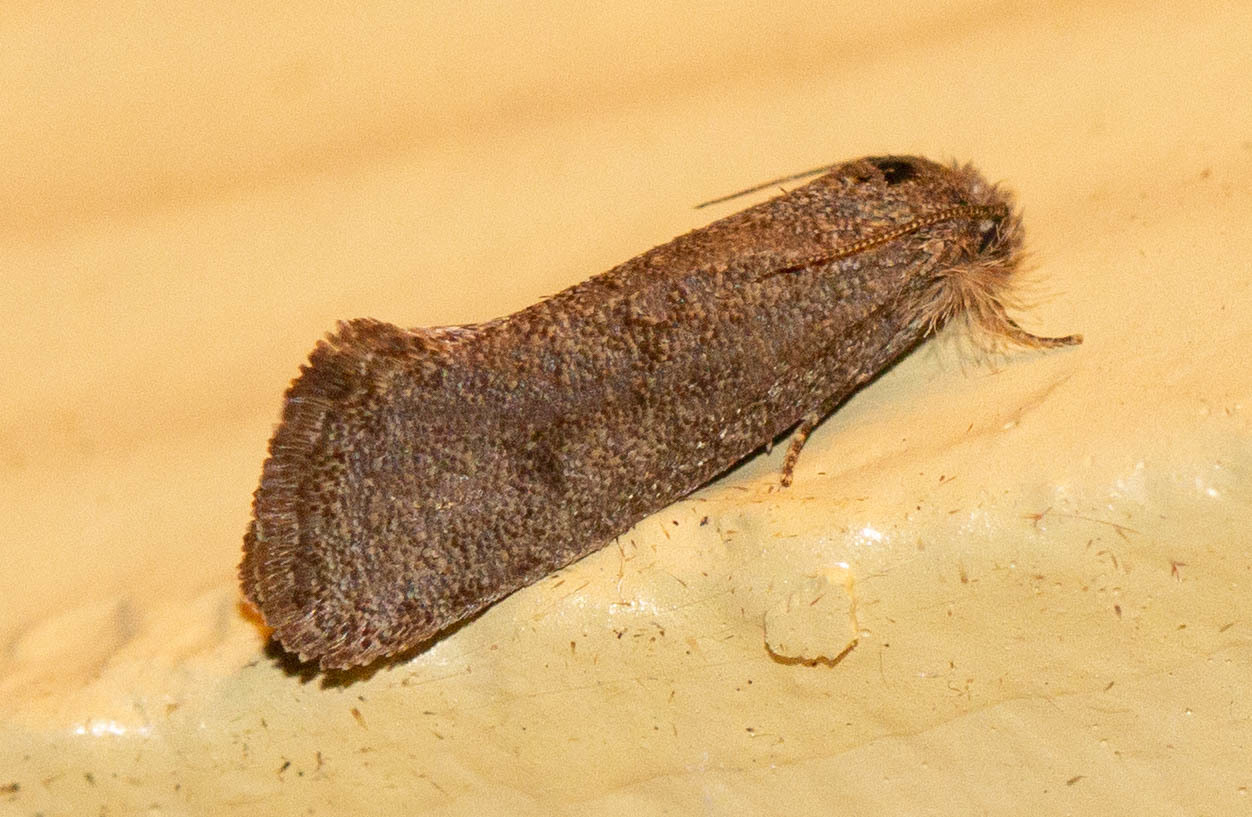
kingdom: Animalia
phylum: Arthropoda
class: Insecta
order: Lepidoptera
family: Tineidae
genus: Acrolophus
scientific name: Acrolophus heppneri
